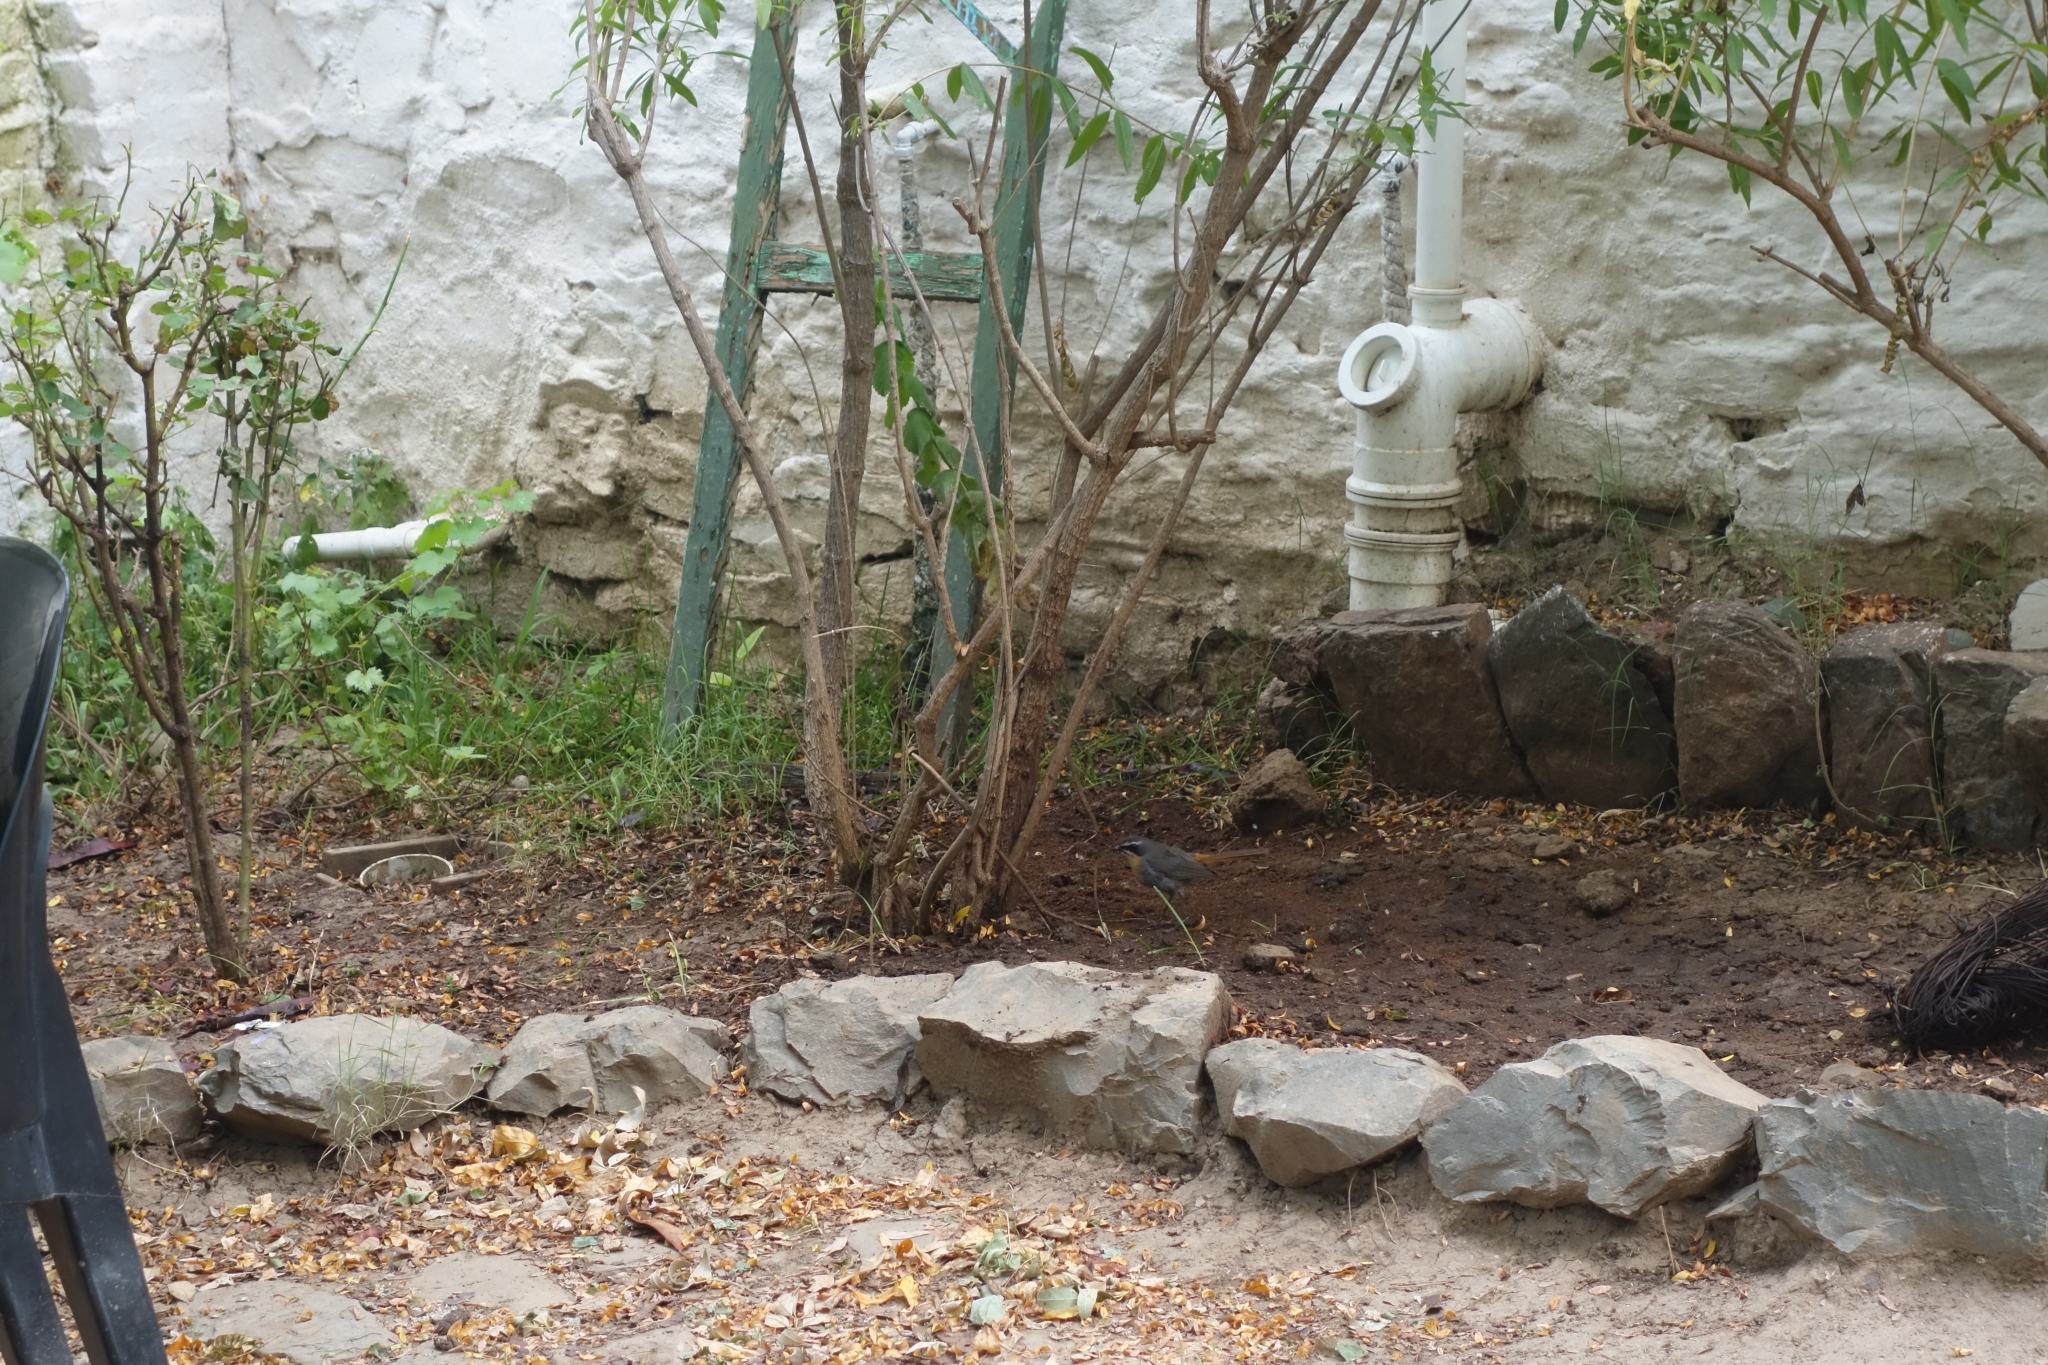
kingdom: Animalia
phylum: Chordata
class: Aves
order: Passeriformes
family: Muscicapidae
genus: Cossypha
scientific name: Cossypha caffra
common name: Cape robin-chat
